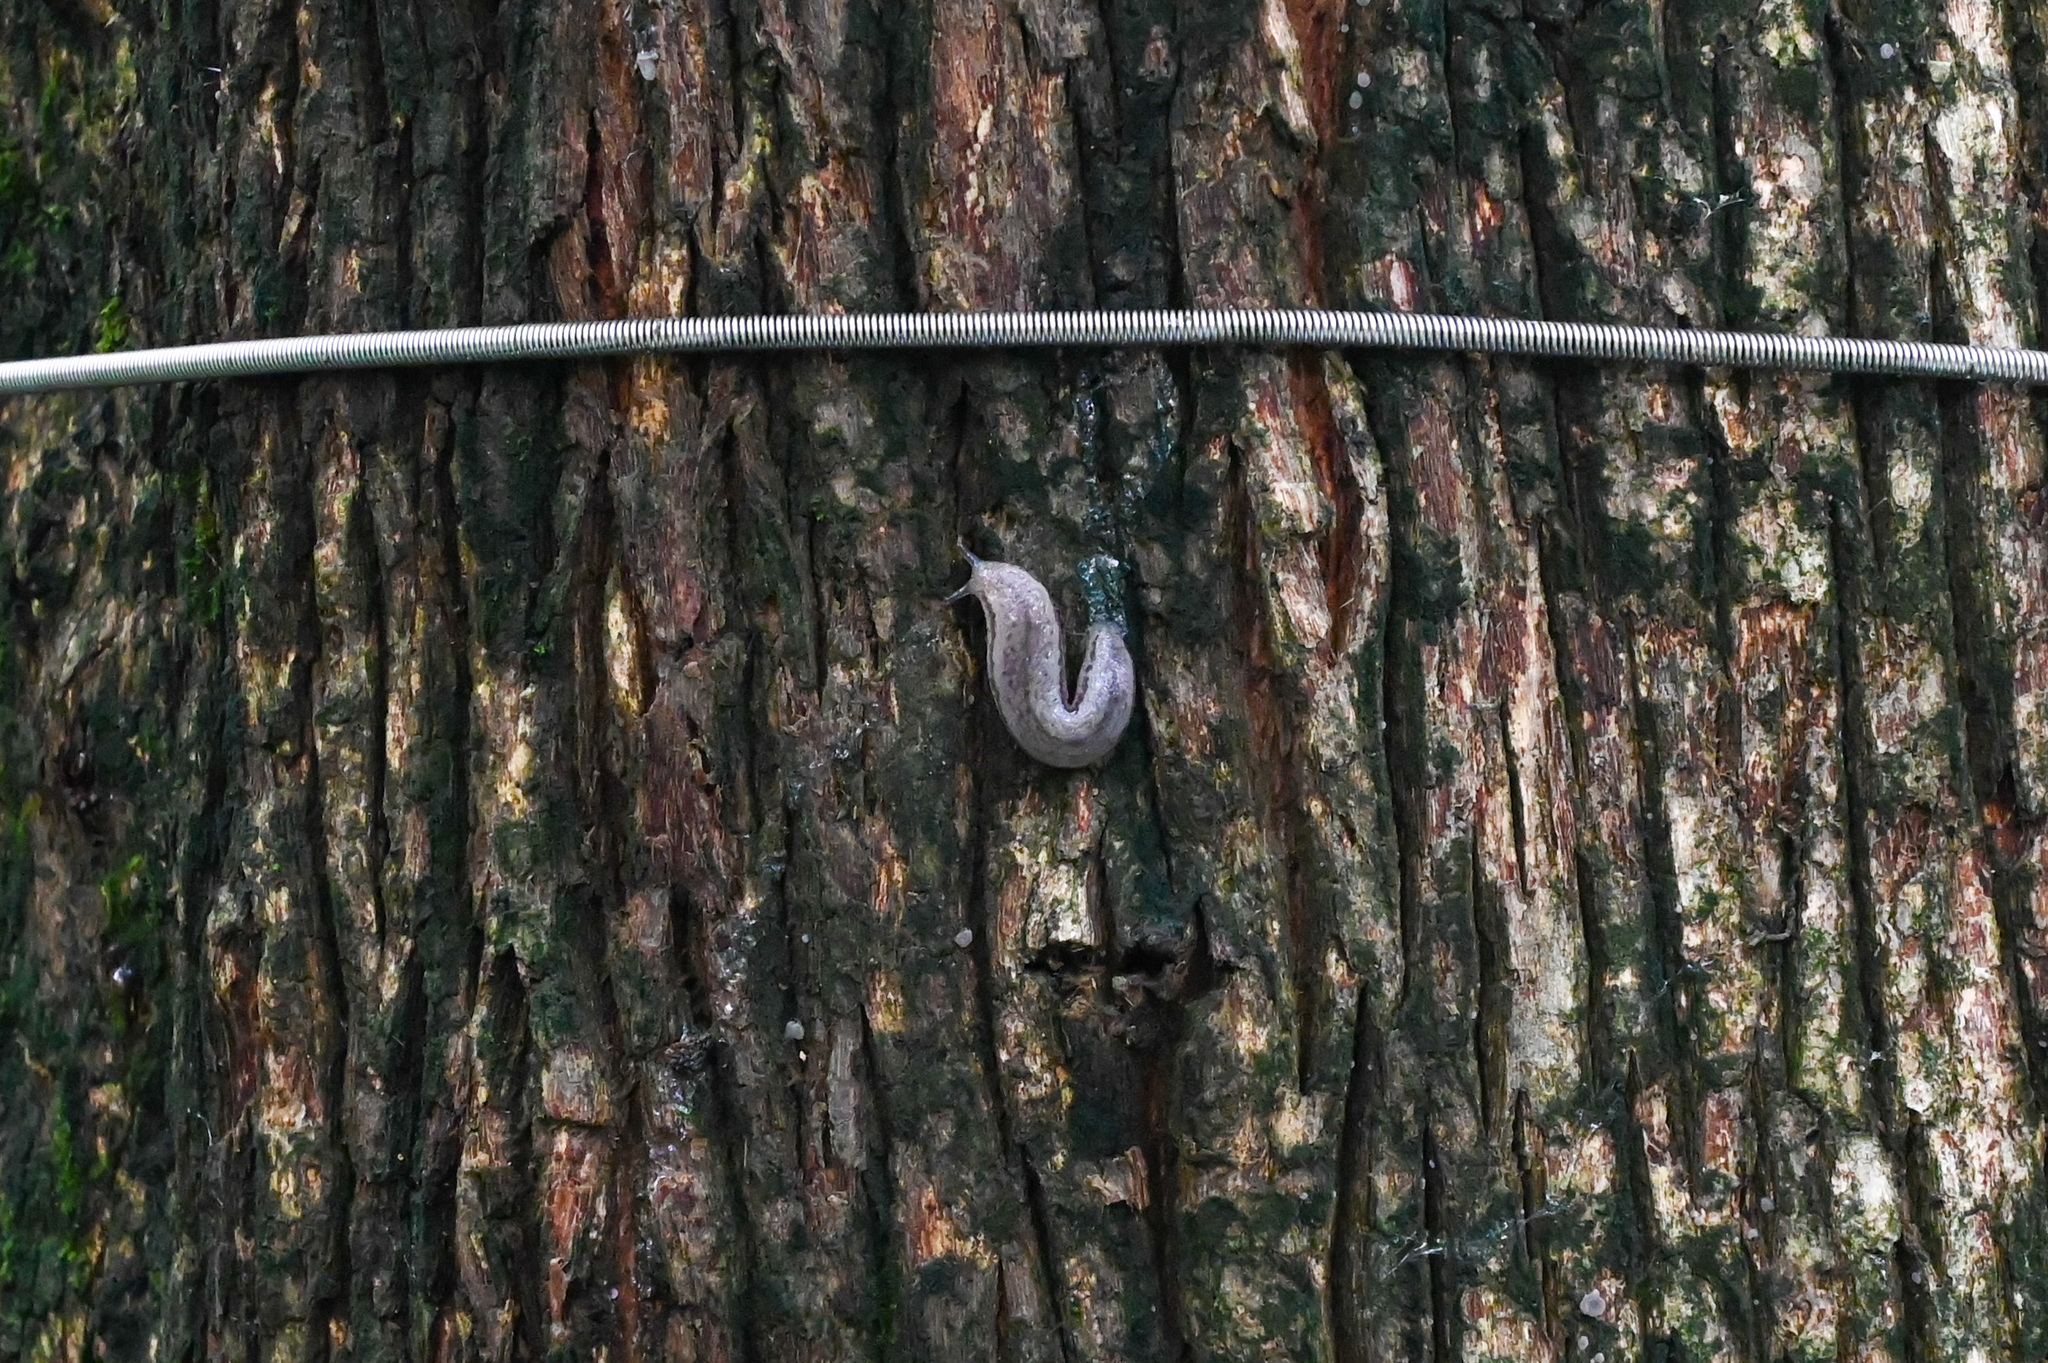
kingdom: Animalia
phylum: Mollusca
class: Gastropoda
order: Stylommatophora
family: Philomycidae
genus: Meghimatium
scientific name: Meghimatium bilineatum
